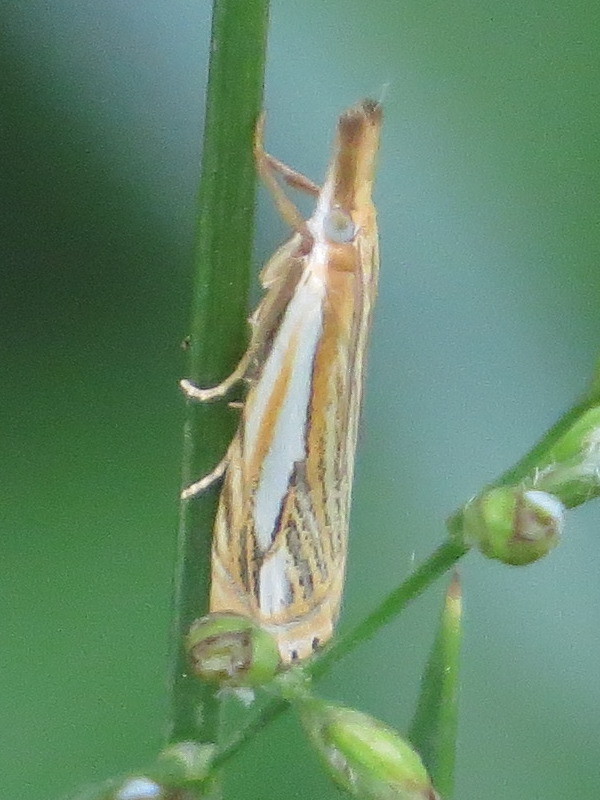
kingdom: Animalia
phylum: Arthropoda
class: Insecta
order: Lepidoptera
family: Crambidae
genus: Crambus
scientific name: Crambus saltuellus
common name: Pasture grass-veneer
